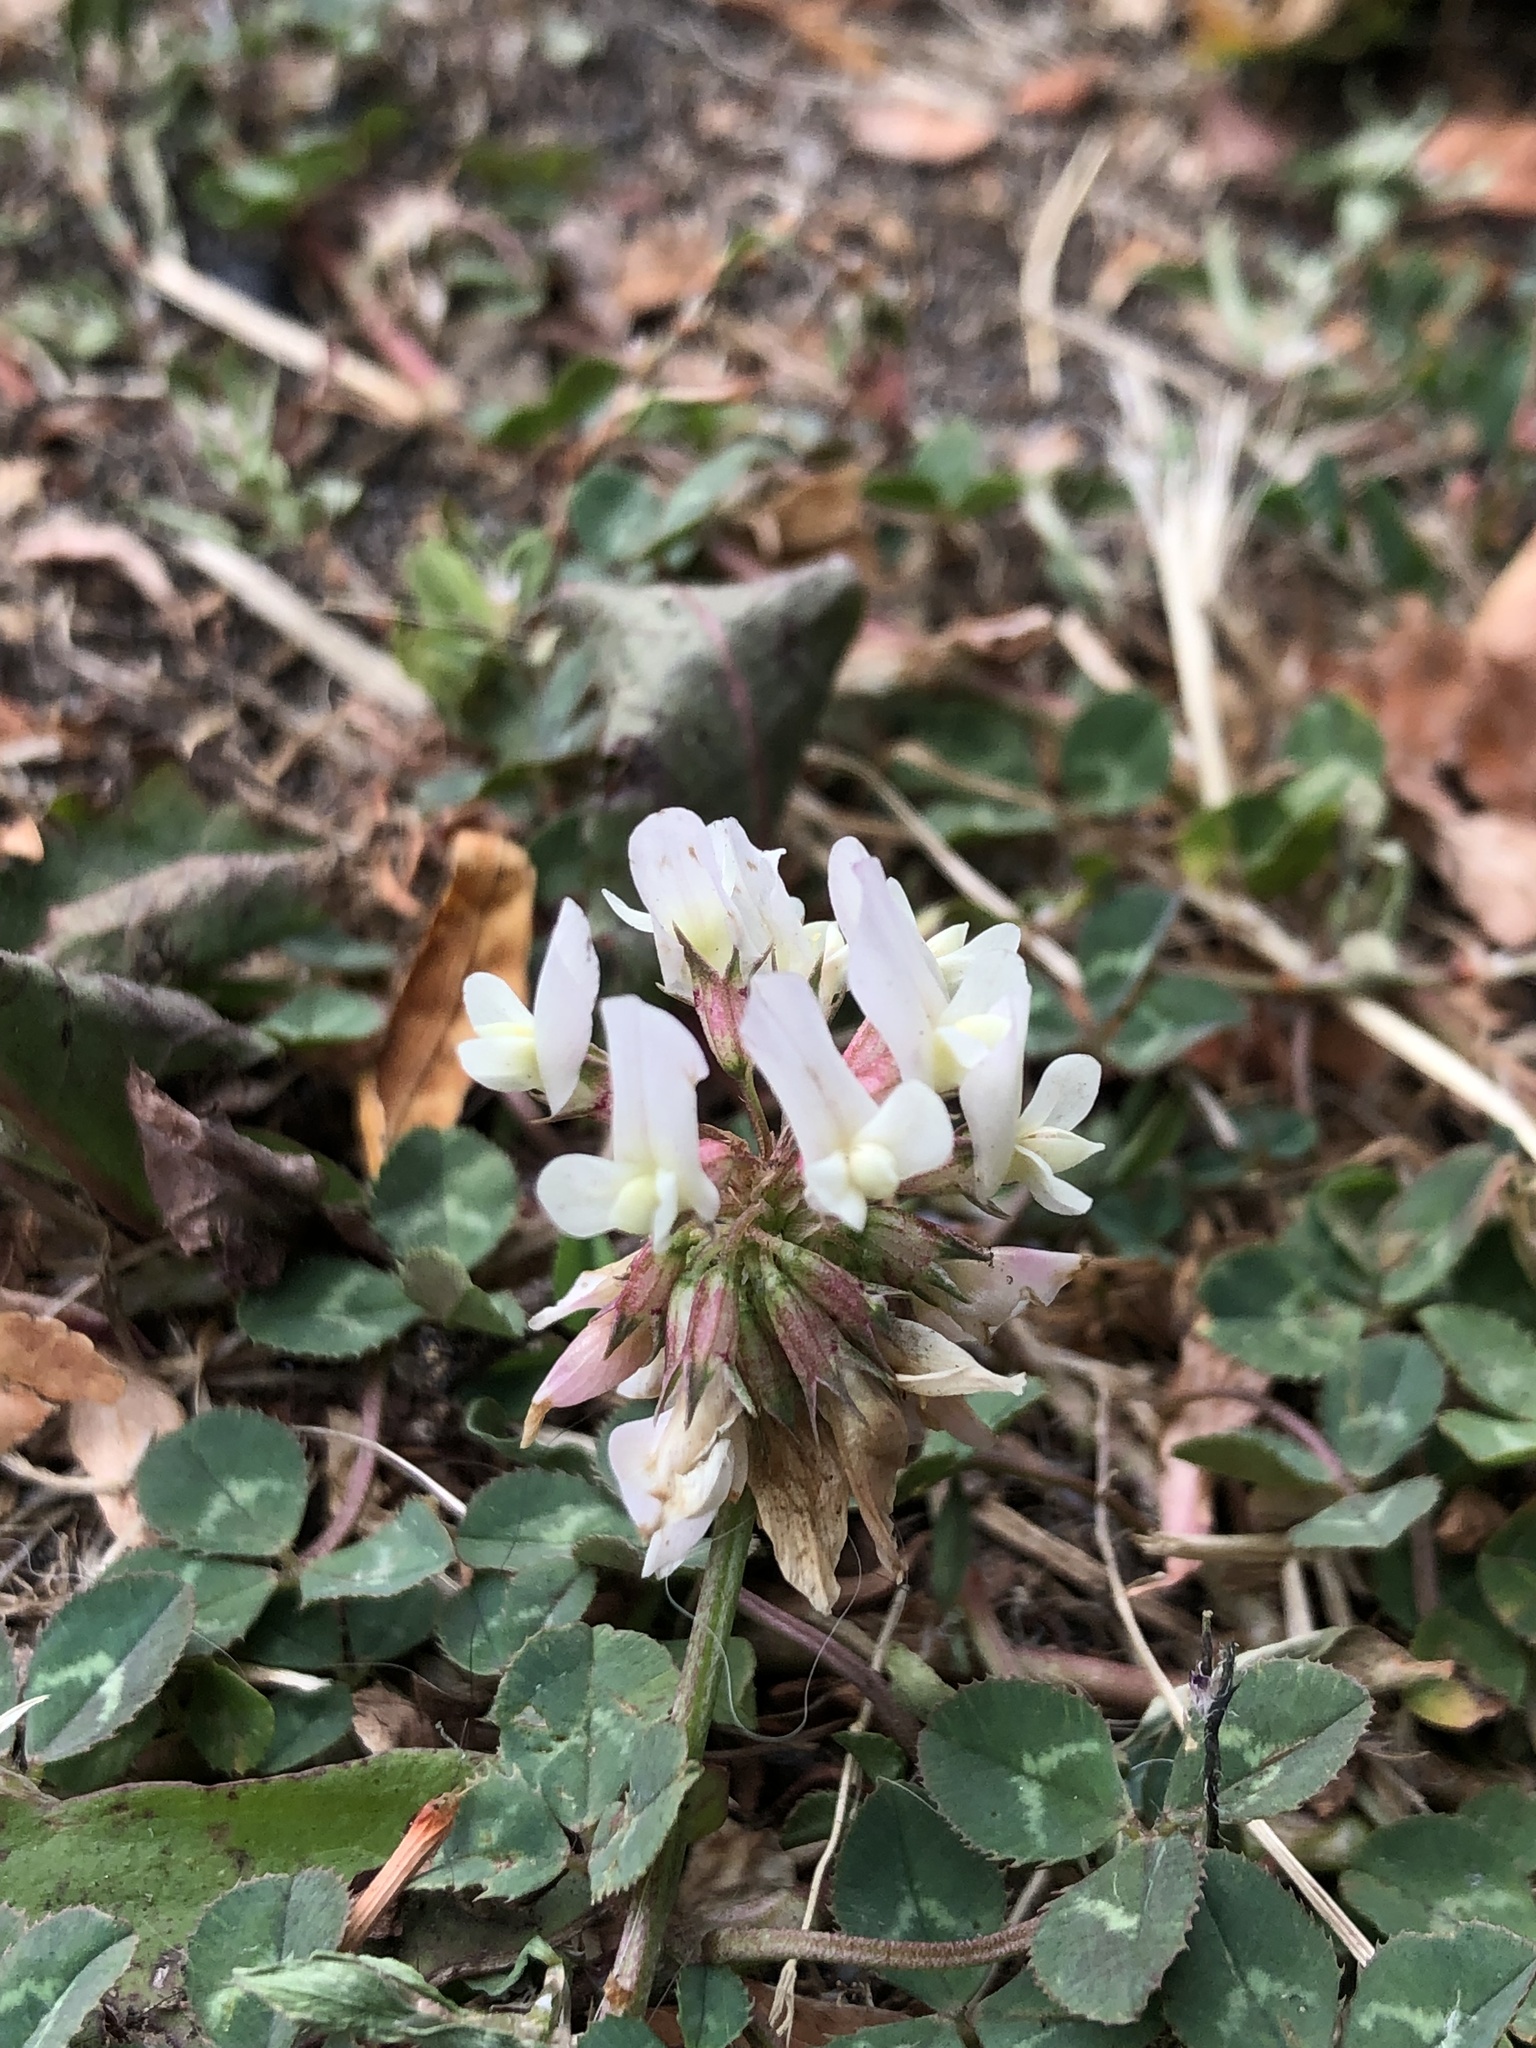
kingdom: Plantae
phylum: Tracheophyta
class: Magnoliopsida
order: Fabales
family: Fabaceae
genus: Trifolium
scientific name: Trifolium repens
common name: White clover
